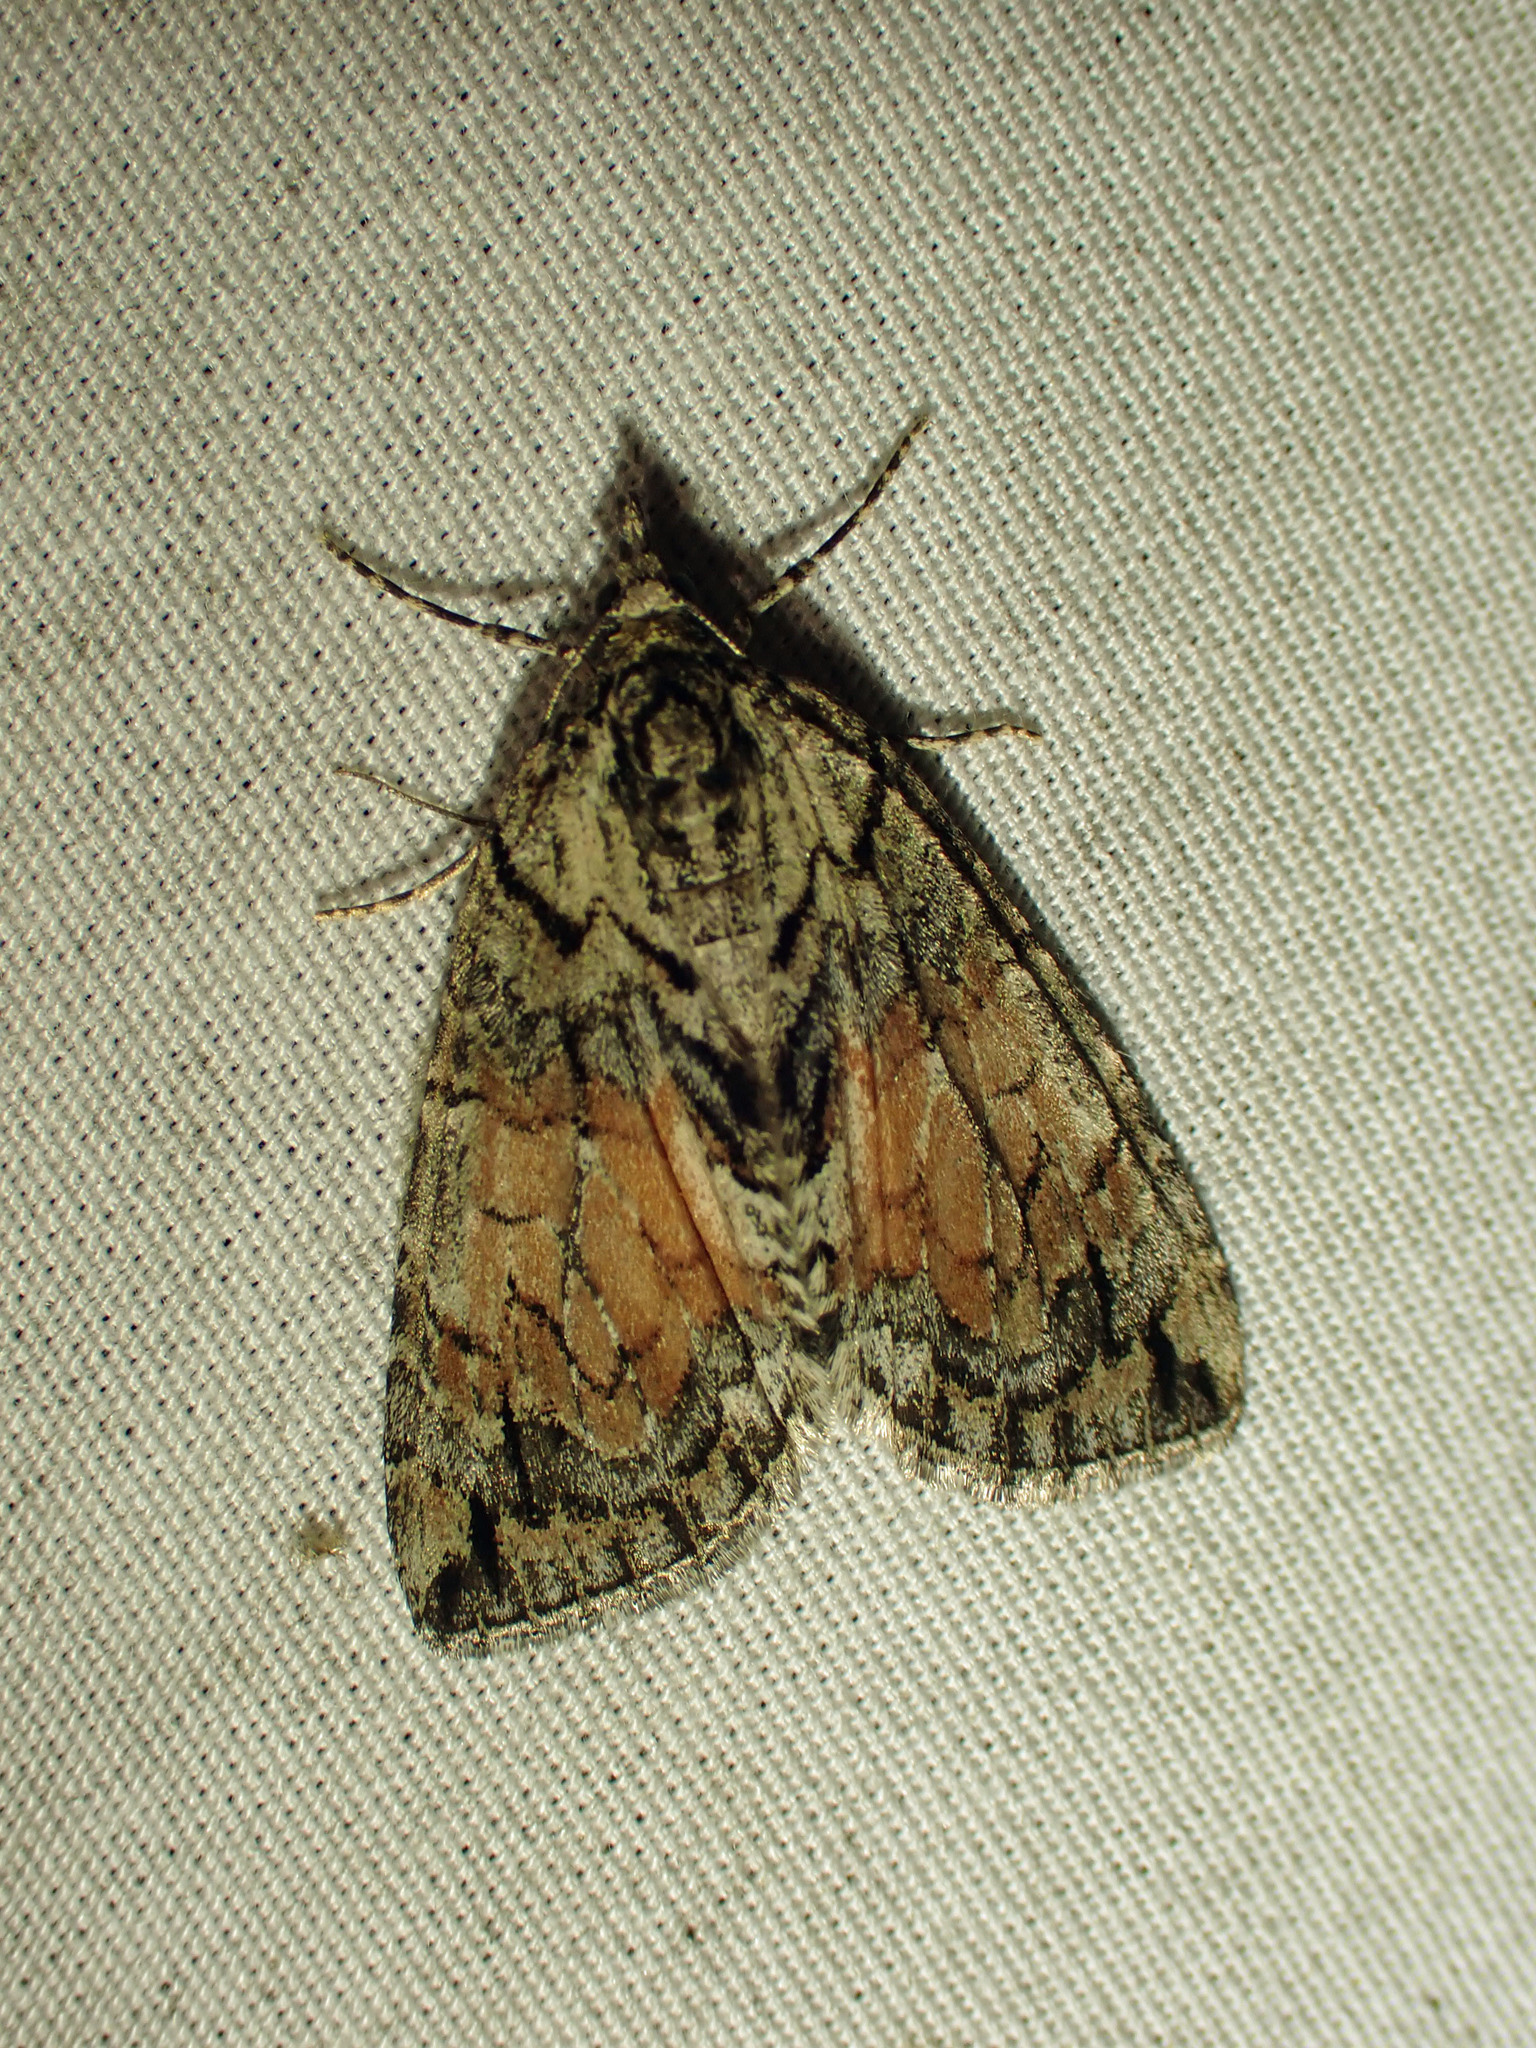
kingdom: Animalia
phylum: Arthropoda
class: Insecta
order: Lepidoptera
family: Geometridae
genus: Hydriomena
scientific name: Hydriomena perfracta
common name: Shattered hydriomena moth
